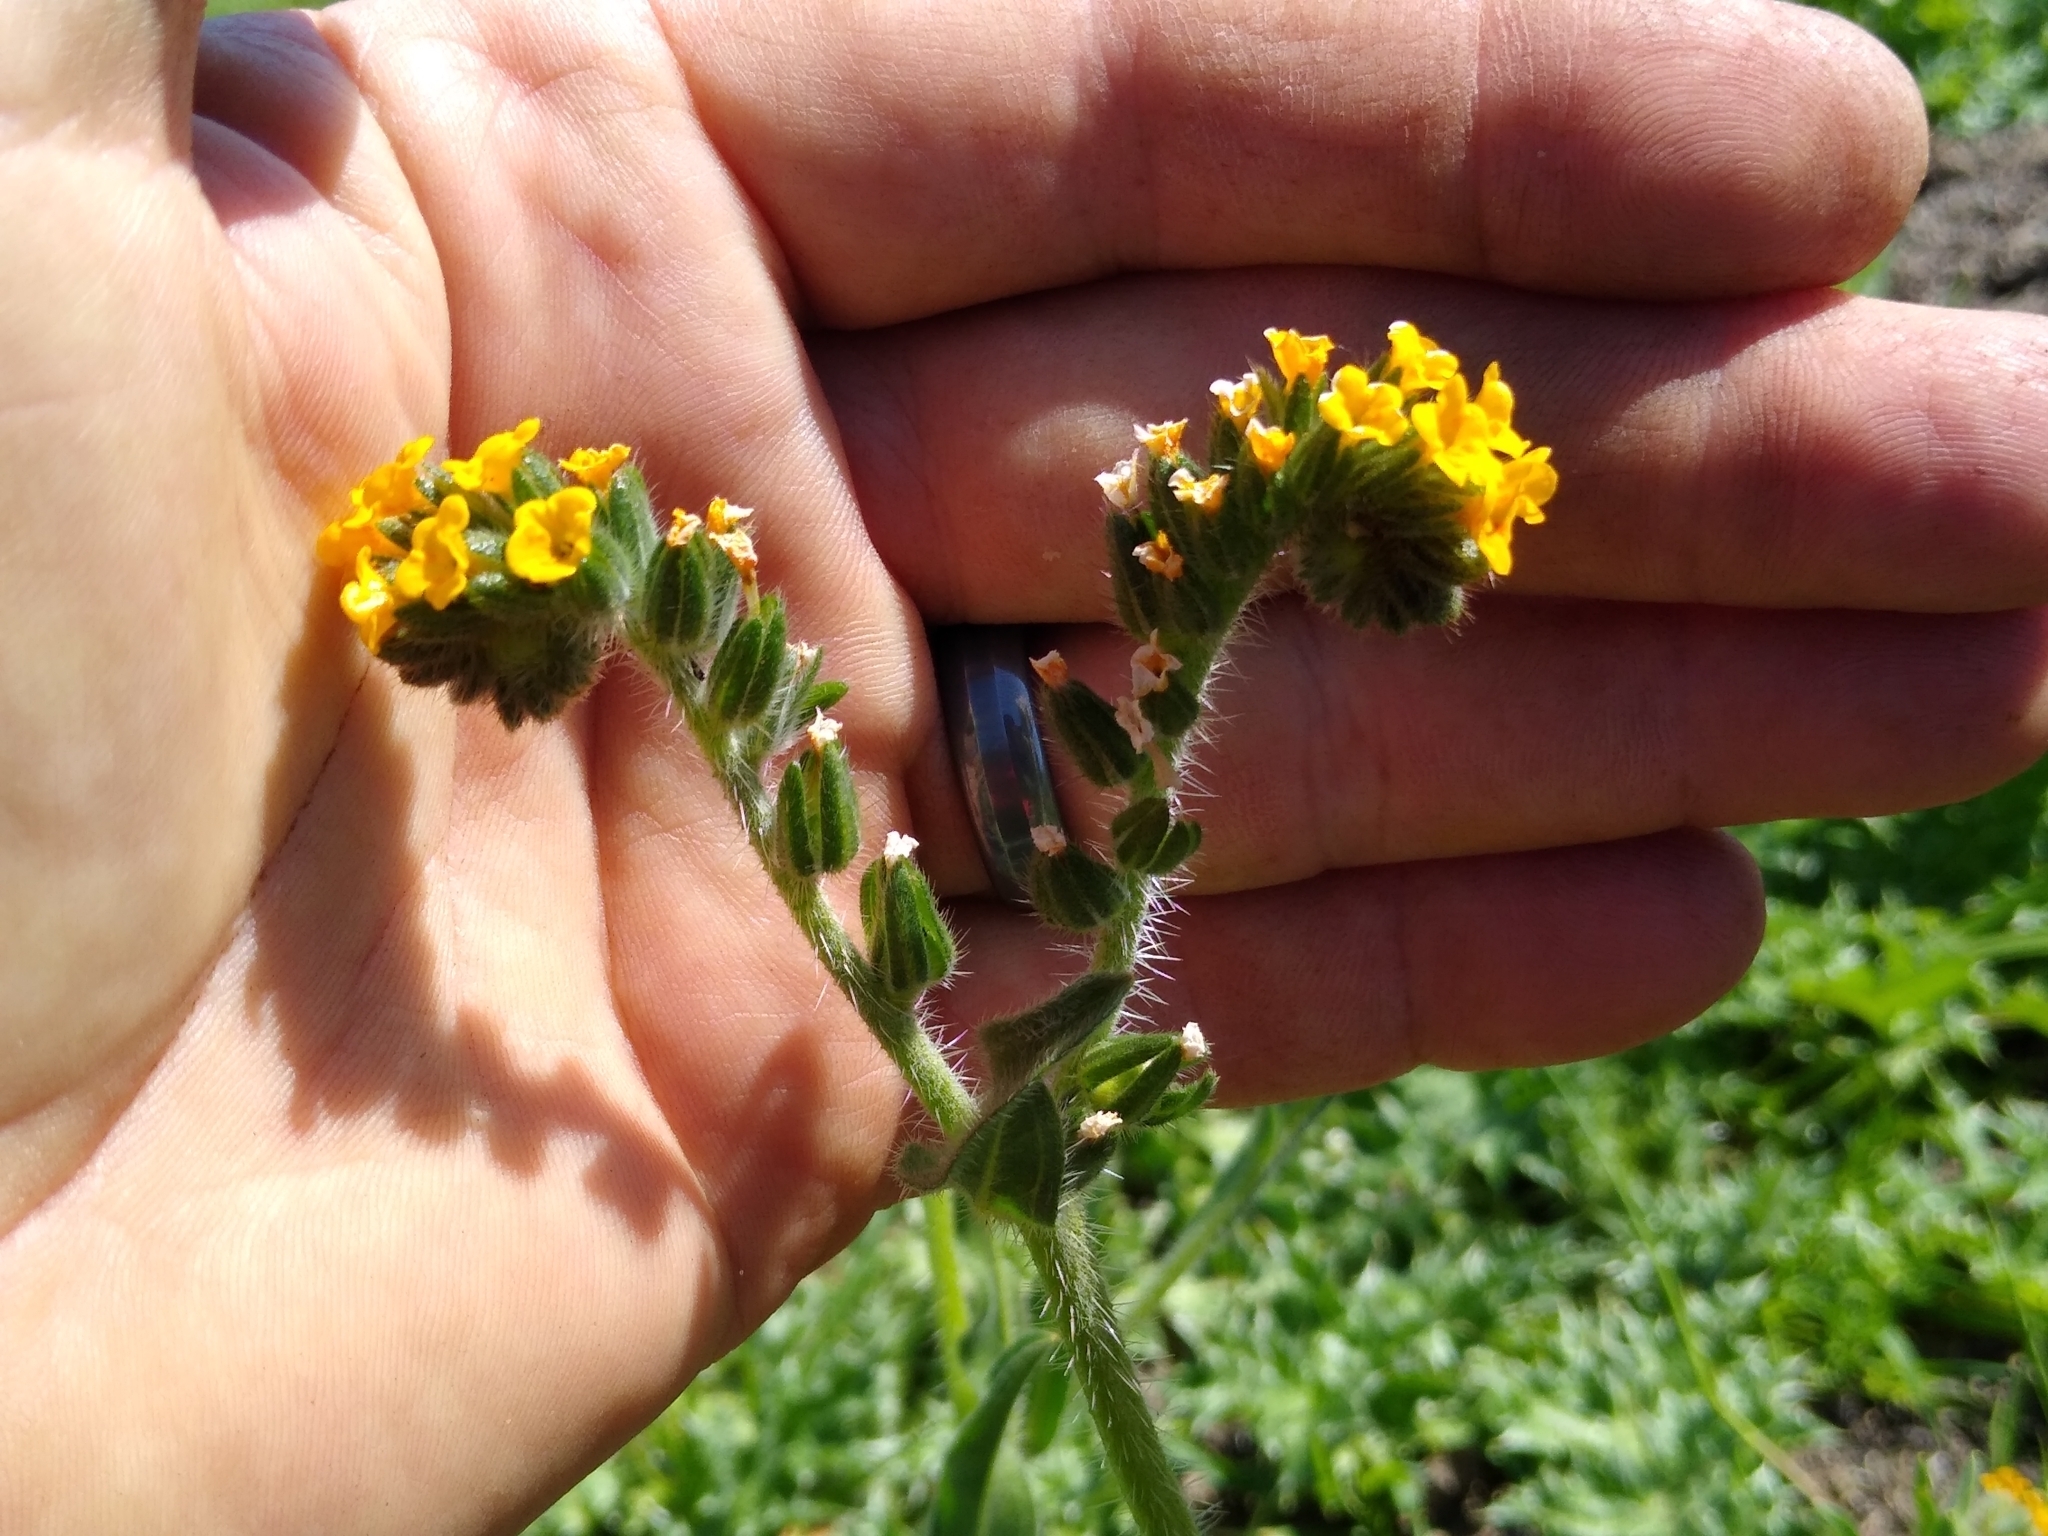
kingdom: Plantae
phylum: Tracheophyta
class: Magnoliopsida
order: Boraginales
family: Boraginaceae
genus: Amsinckia
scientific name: Amsinckia menziesii
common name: Menzies' fiddleneck
